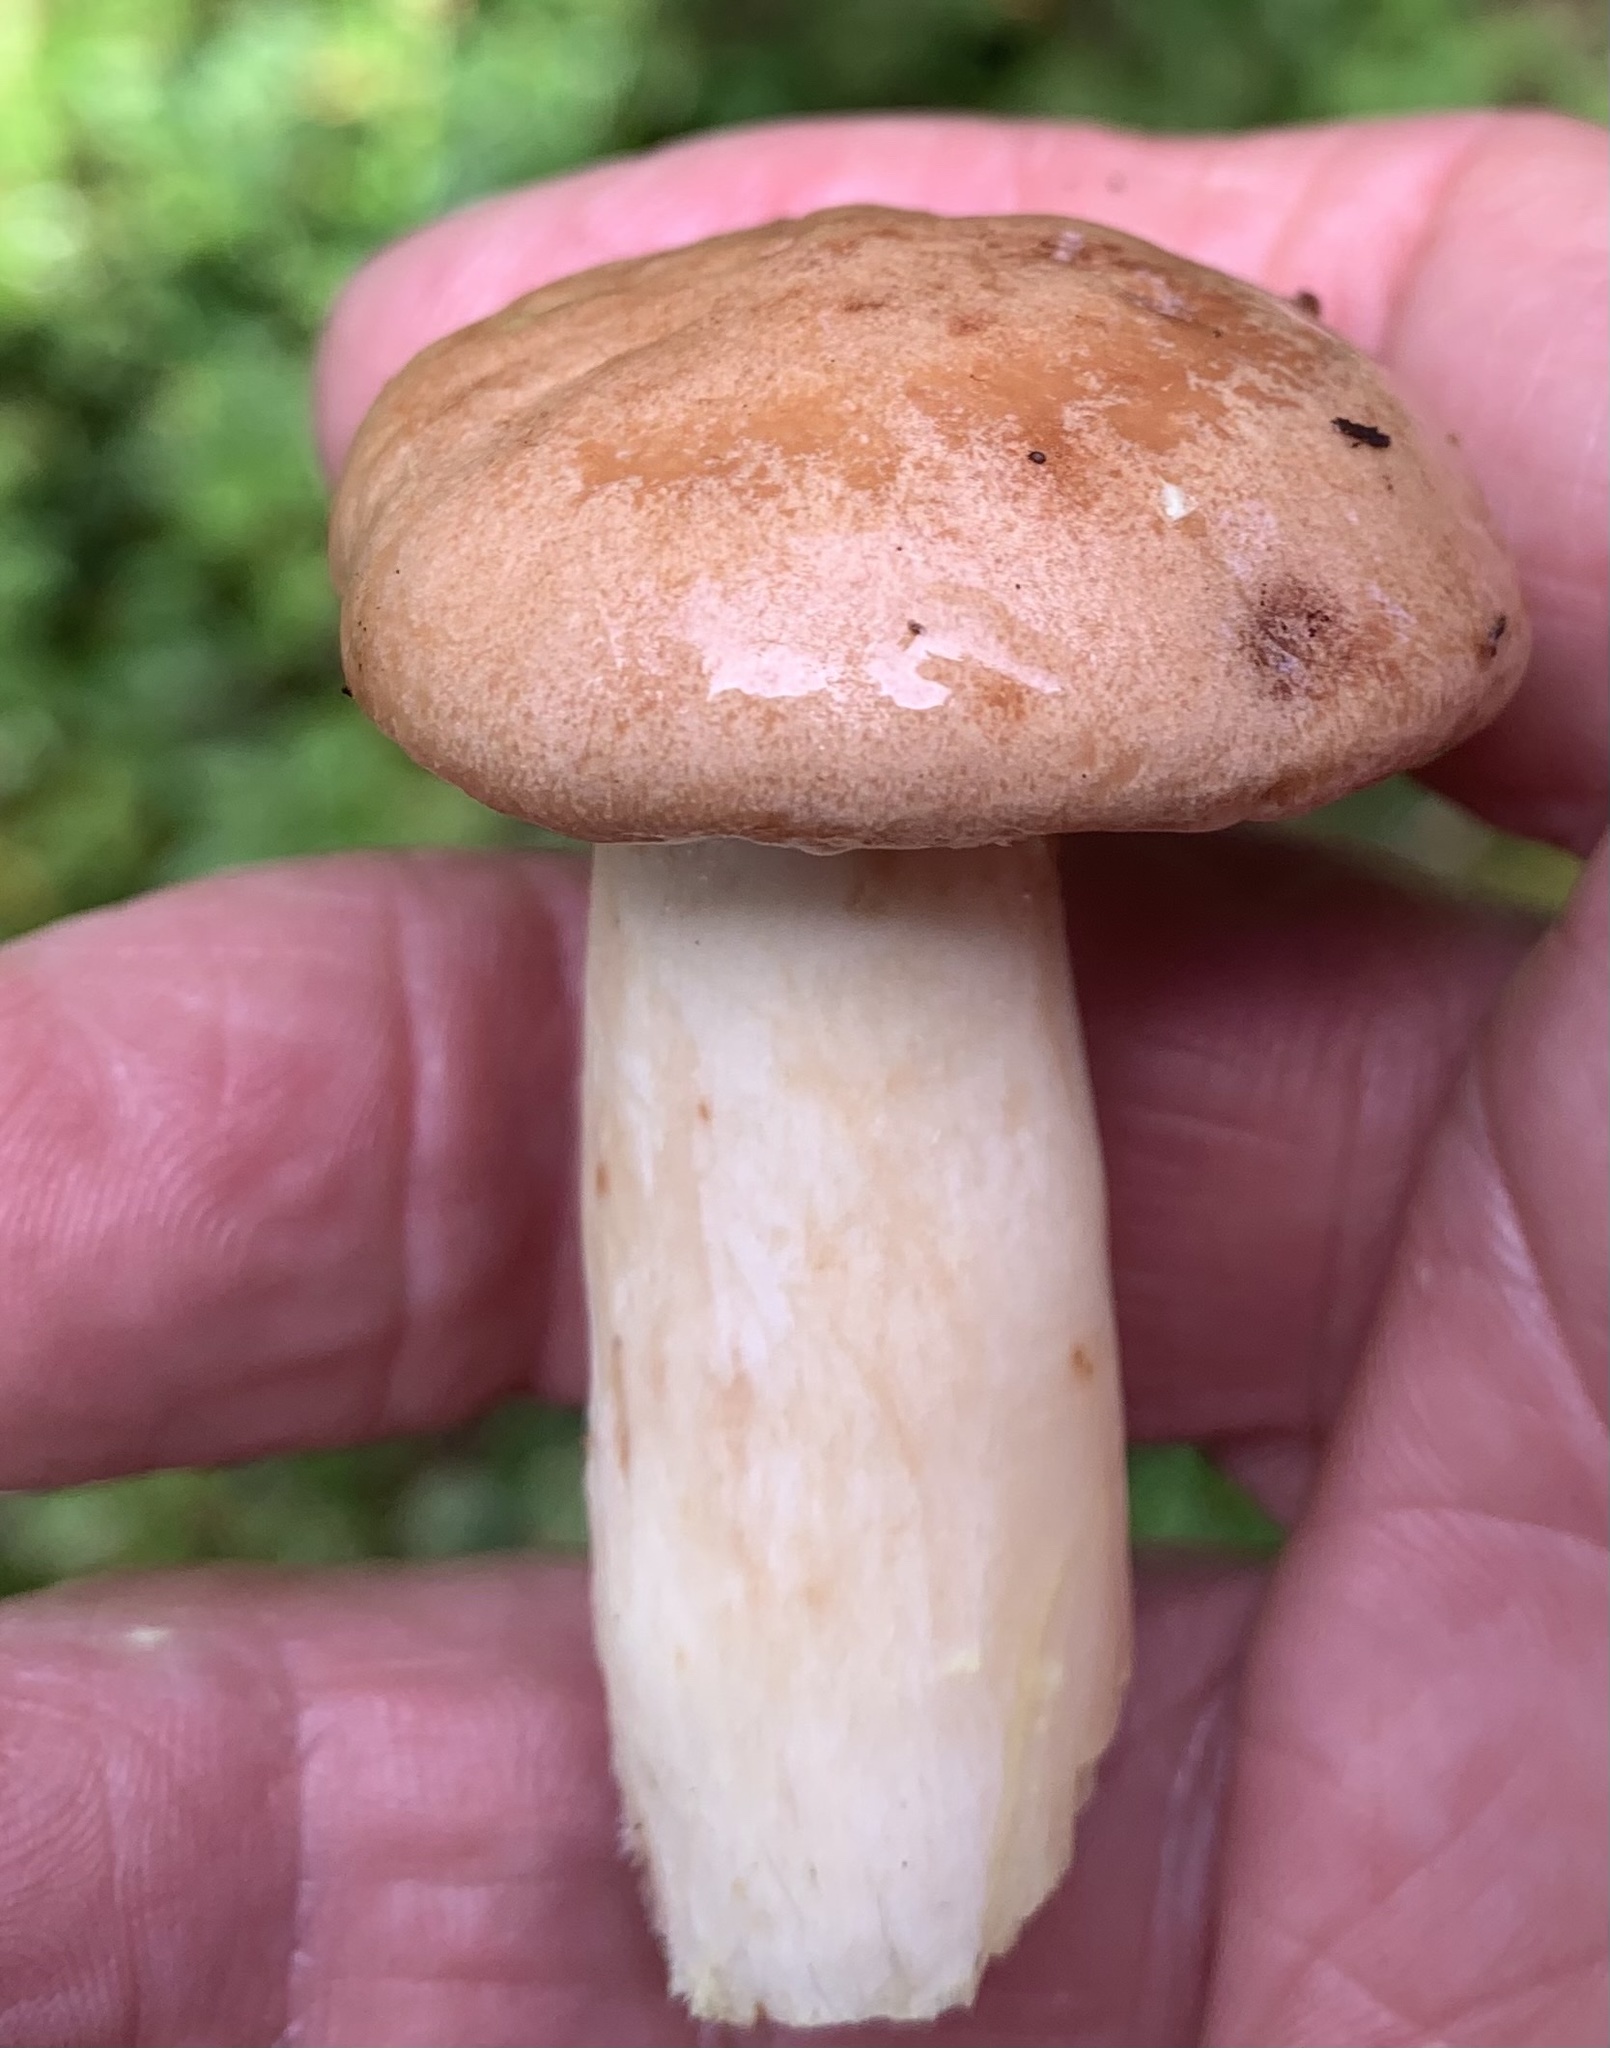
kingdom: Fungi
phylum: Basidiomycota
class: Agaricomycetes
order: Russulales
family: Russulaceae
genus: Lactarius
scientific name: Lactarius vinaceorufescens
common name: Yellow-latex milkcap
